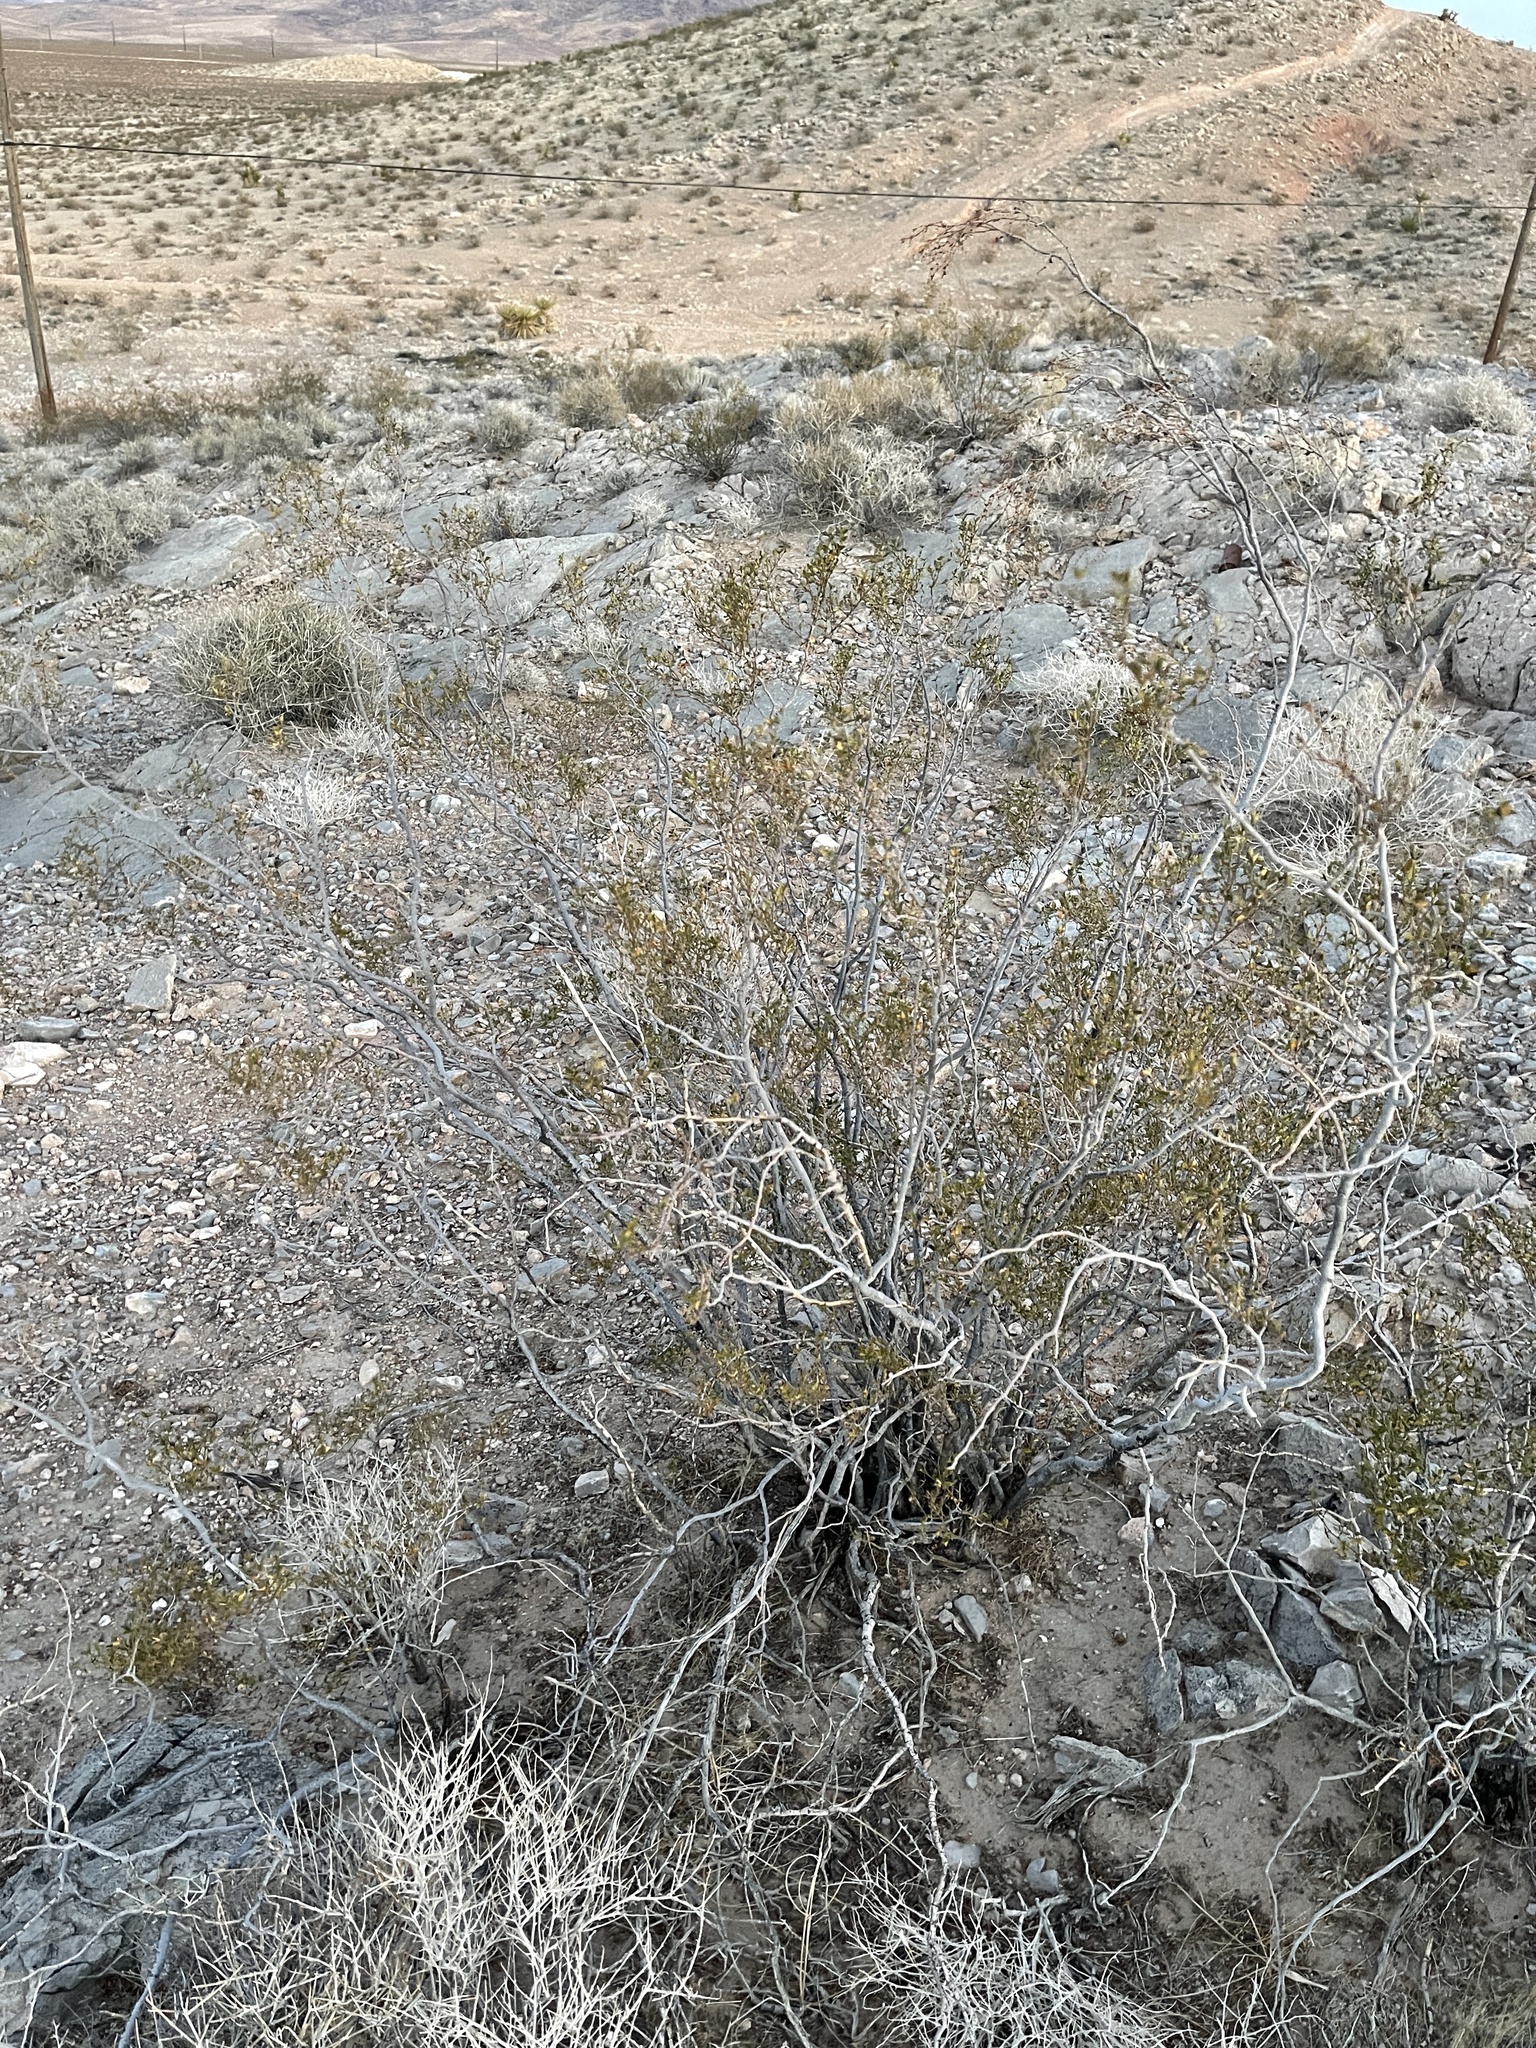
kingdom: Plantae
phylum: Tracheophyta
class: Magnoliopsida
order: Zygophyllales
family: Zygophyllaceae
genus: Larrea
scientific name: Larrea tridentata
